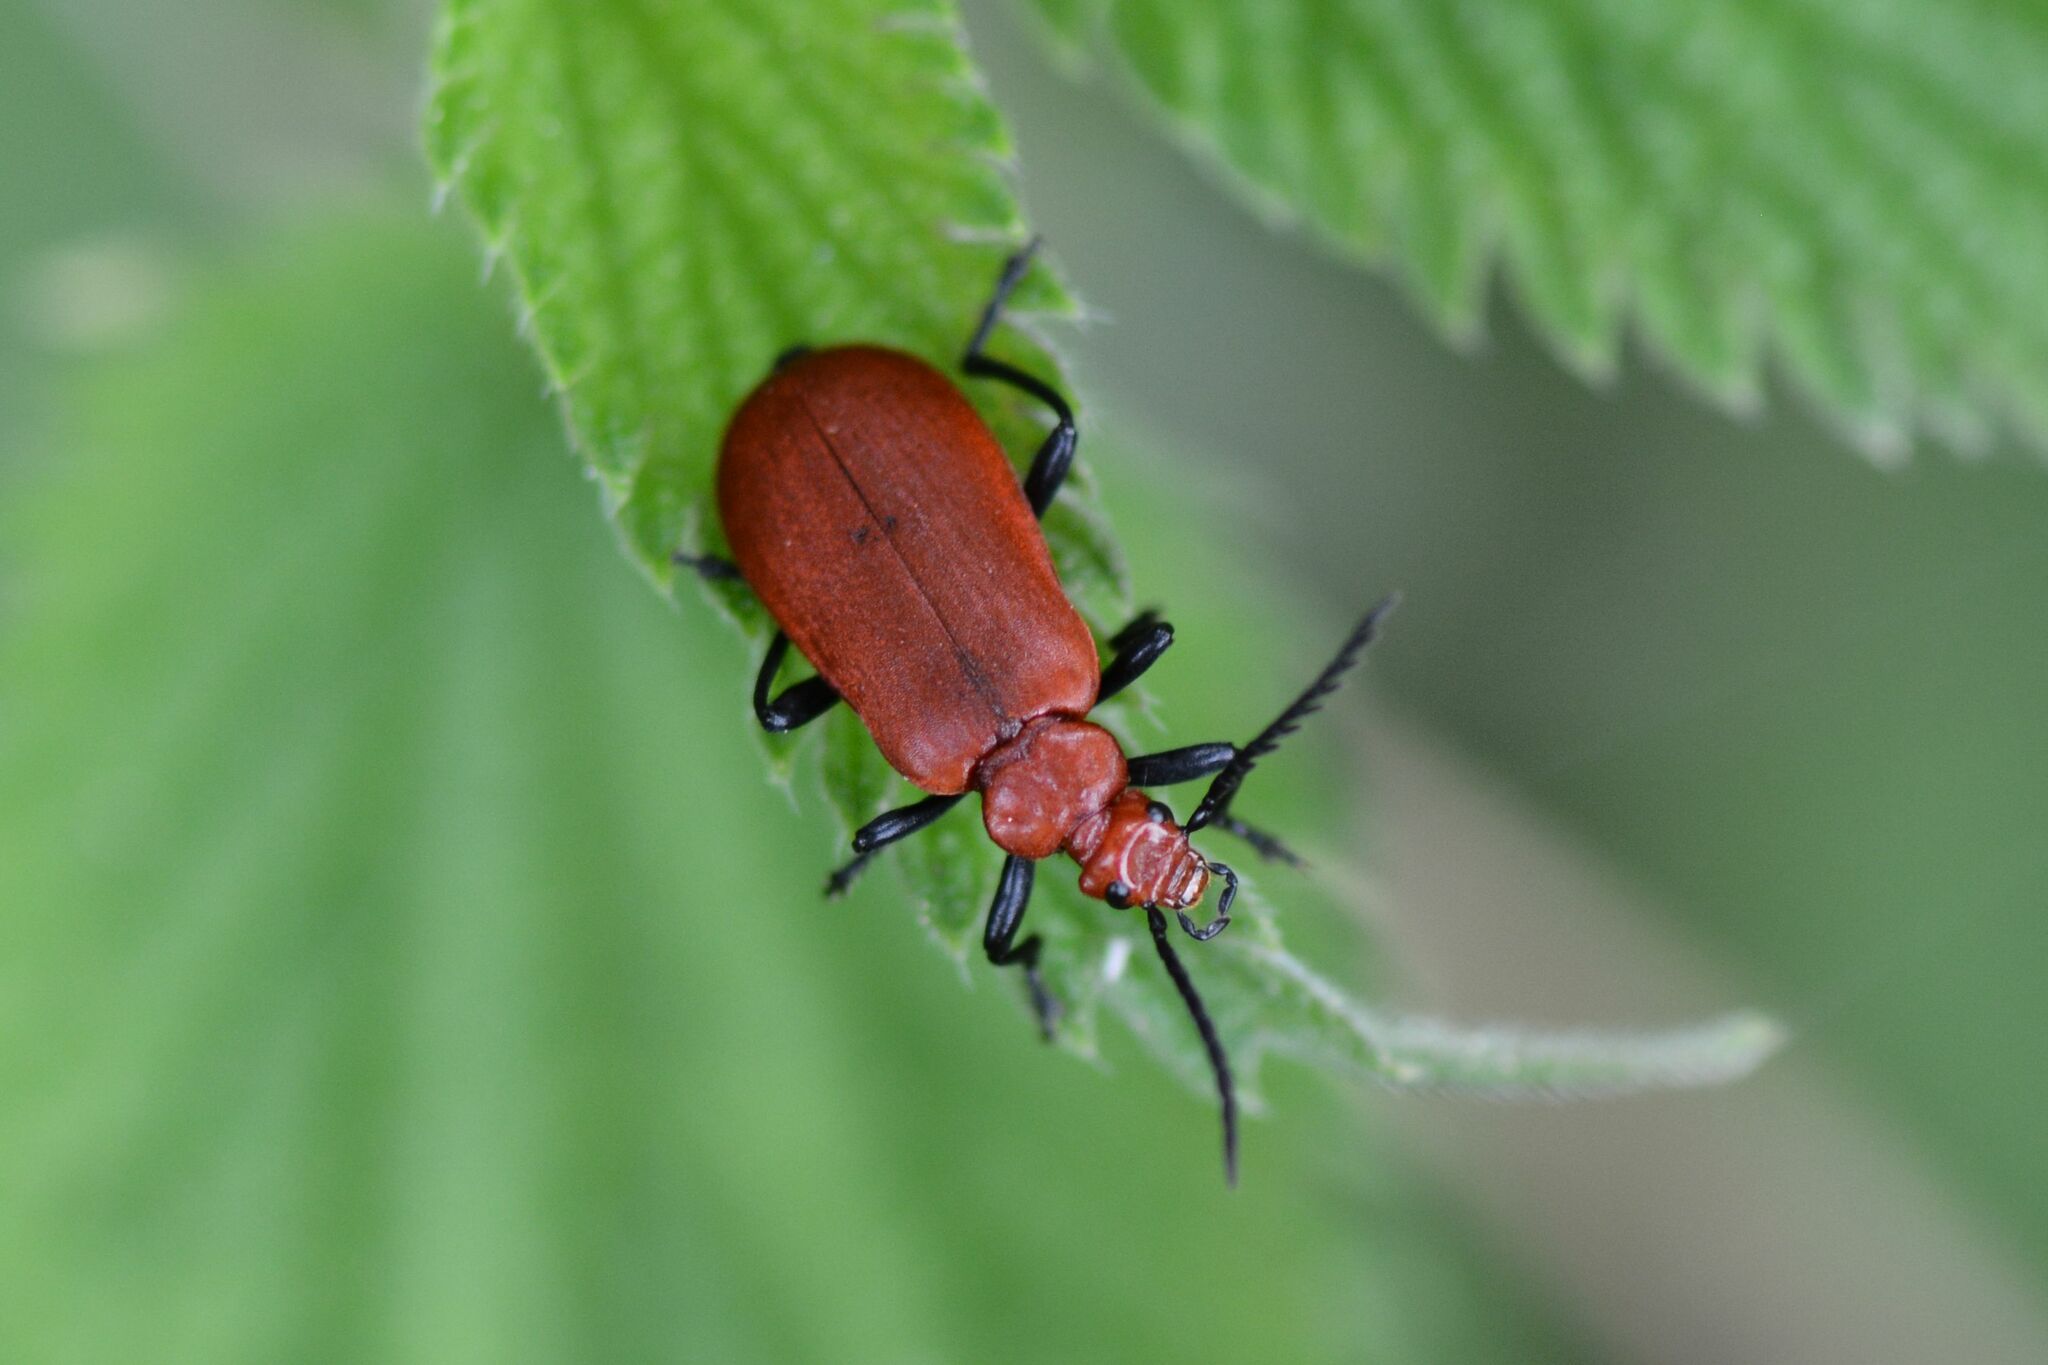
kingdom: Animalia
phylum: Arthropoda
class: Insecta
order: Coleoptera
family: Pyrochroidae
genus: Pyrochroa
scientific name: Pyrochroa serraticornis
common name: Red-headed cardinal beetle
